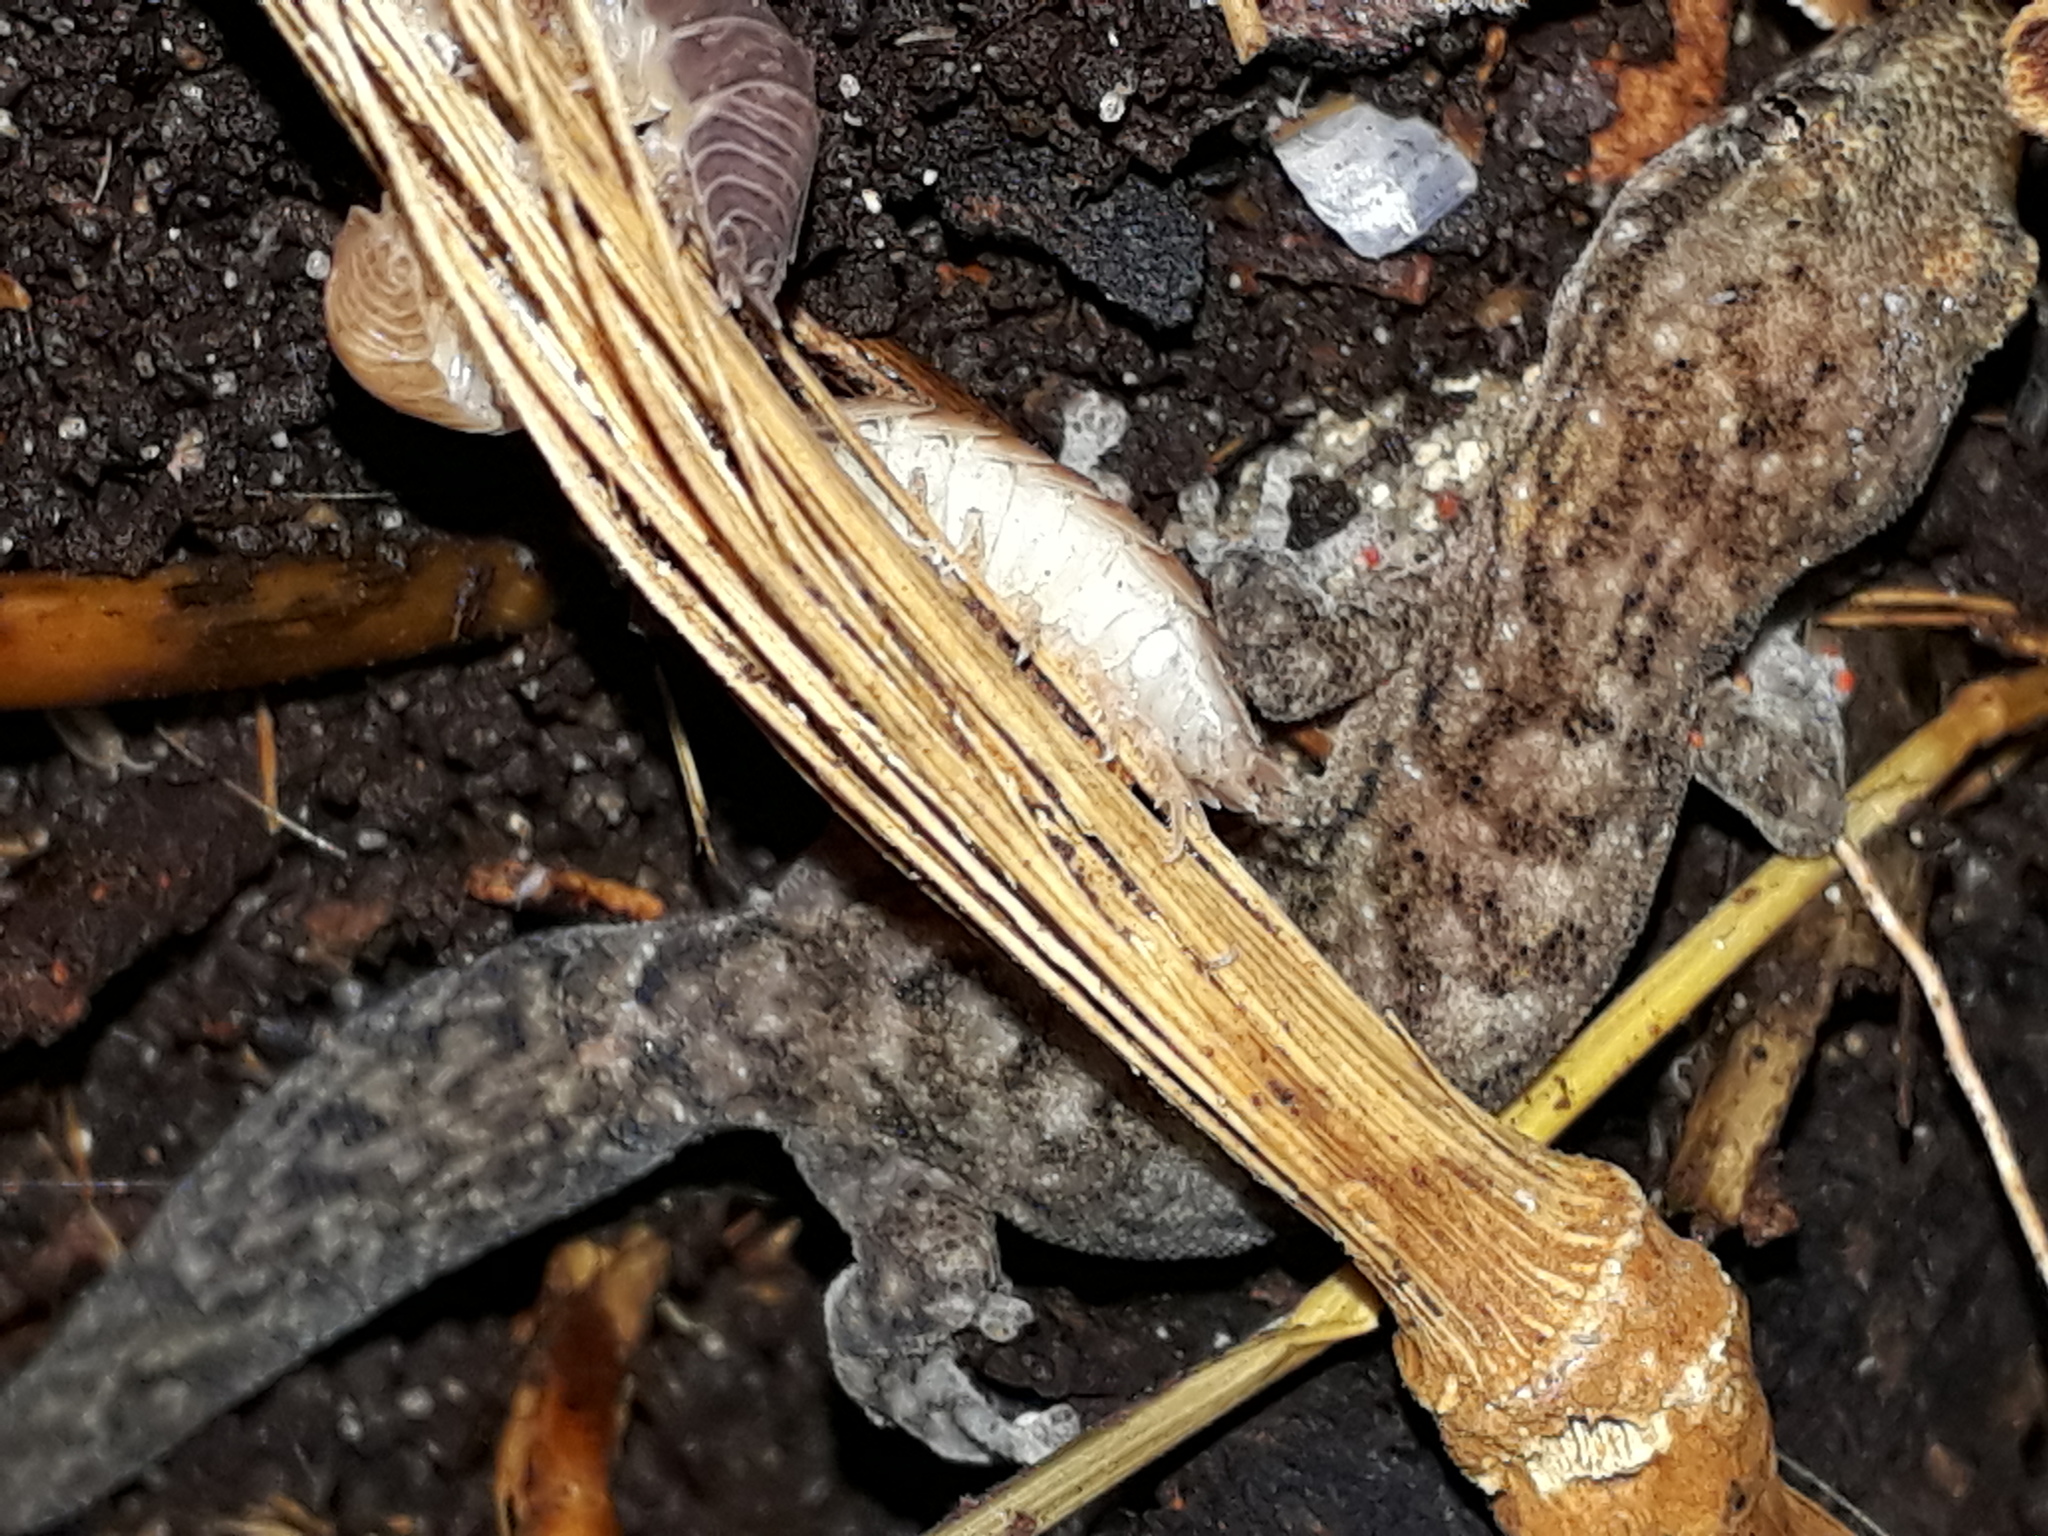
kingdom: Animalia
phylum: Chordata
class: Squamata
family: Gekkonidae
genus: Afrogecko
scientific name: Afrogecko porphyreus
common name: Marbled leaf-toed gecko
